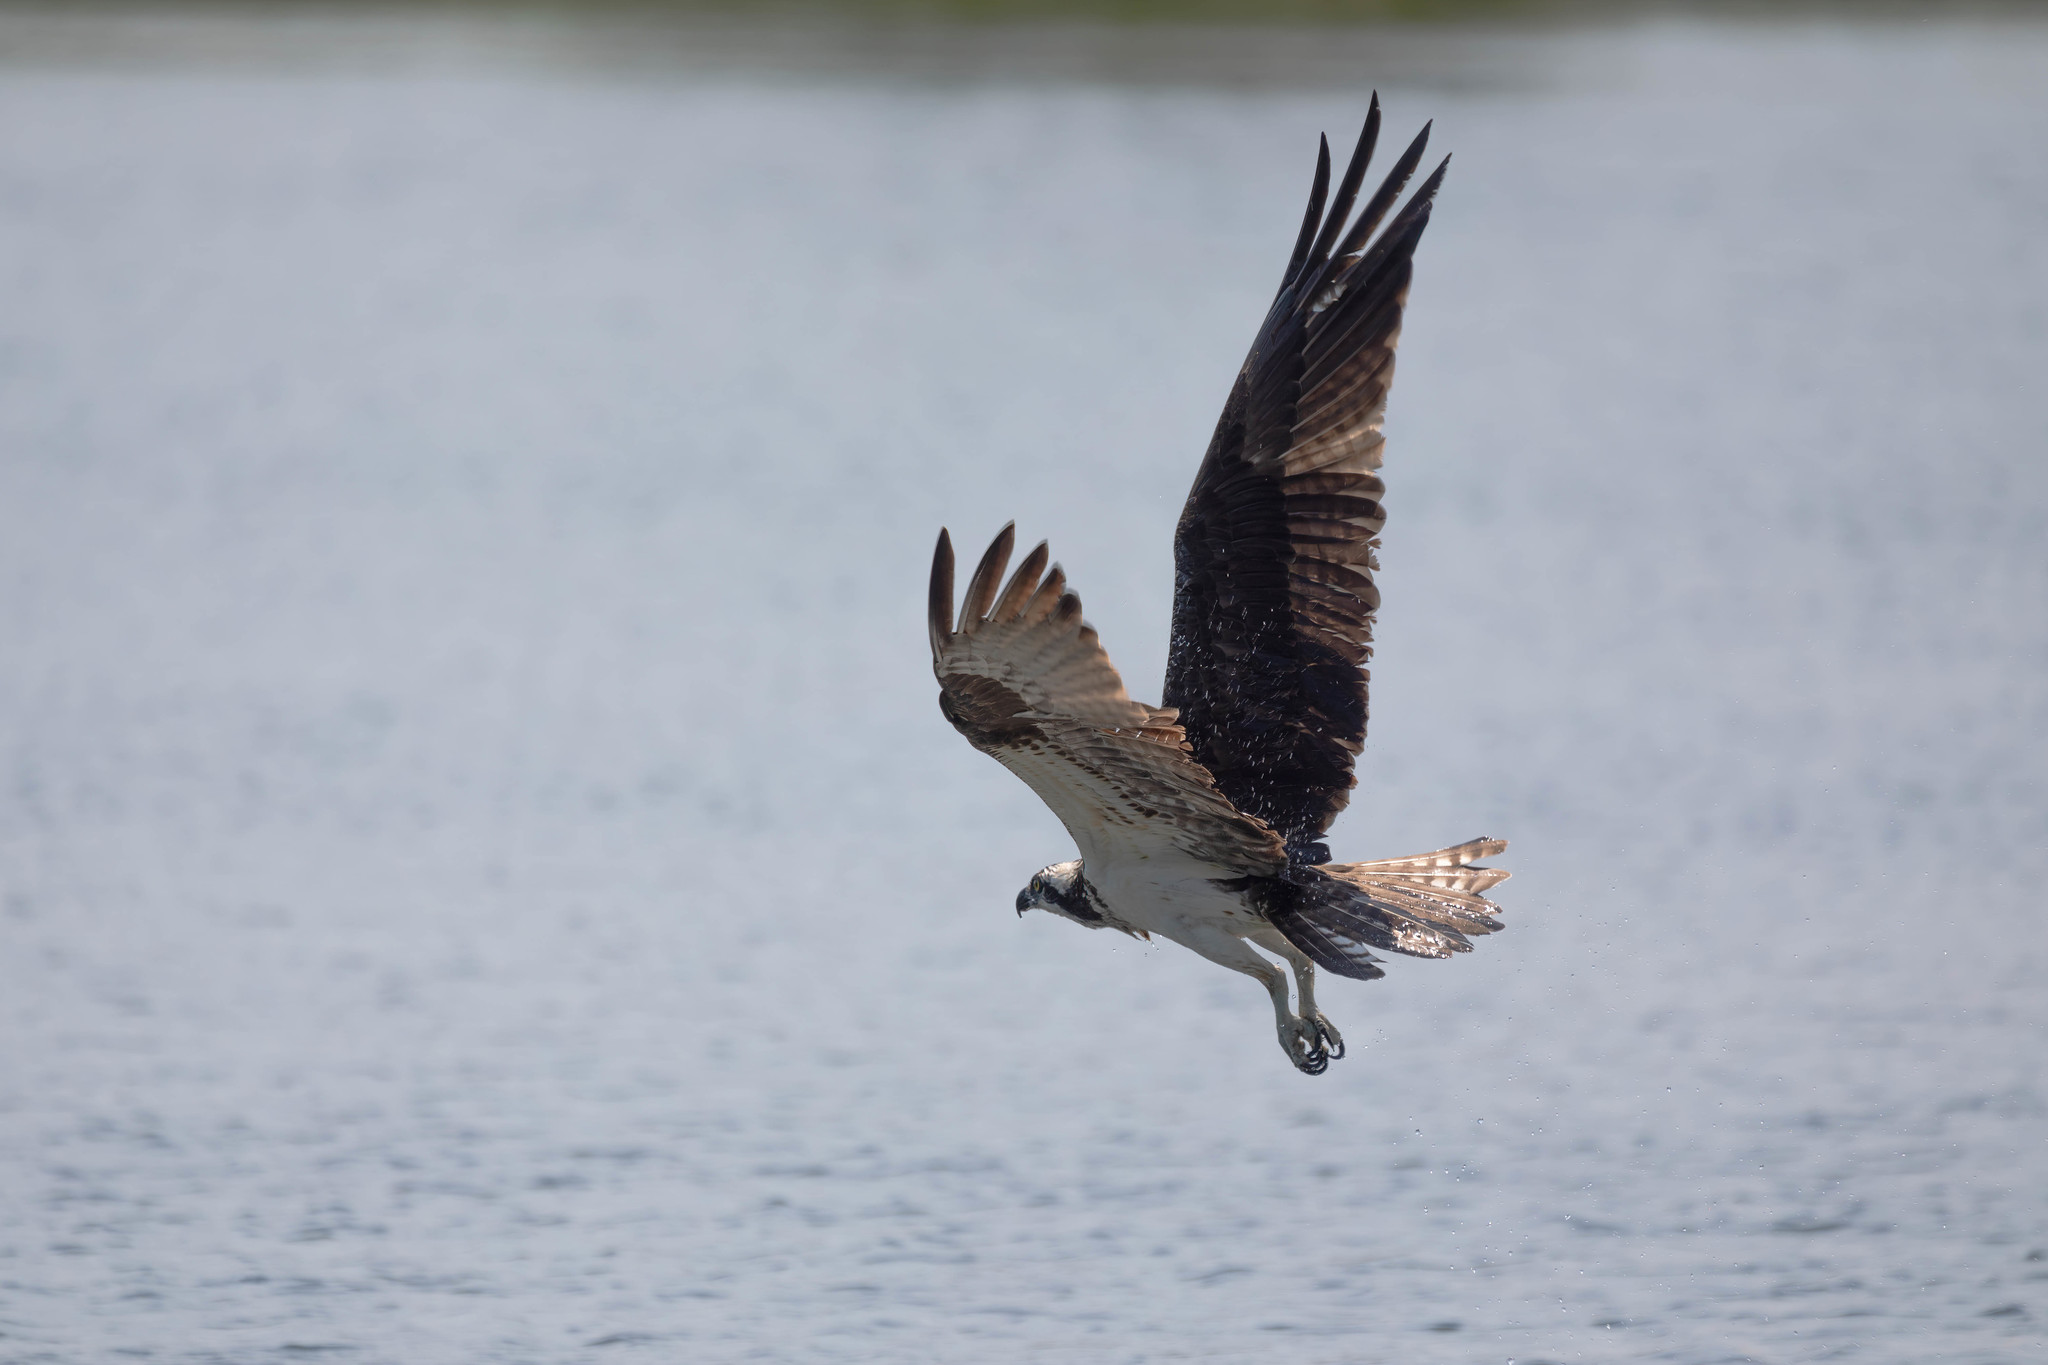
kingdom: Animalia
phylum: Chordata
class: Aves
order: Accipitriformes
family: Pandionidae
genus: Pandion
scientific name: Pandion haliaetus
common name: Osprey
